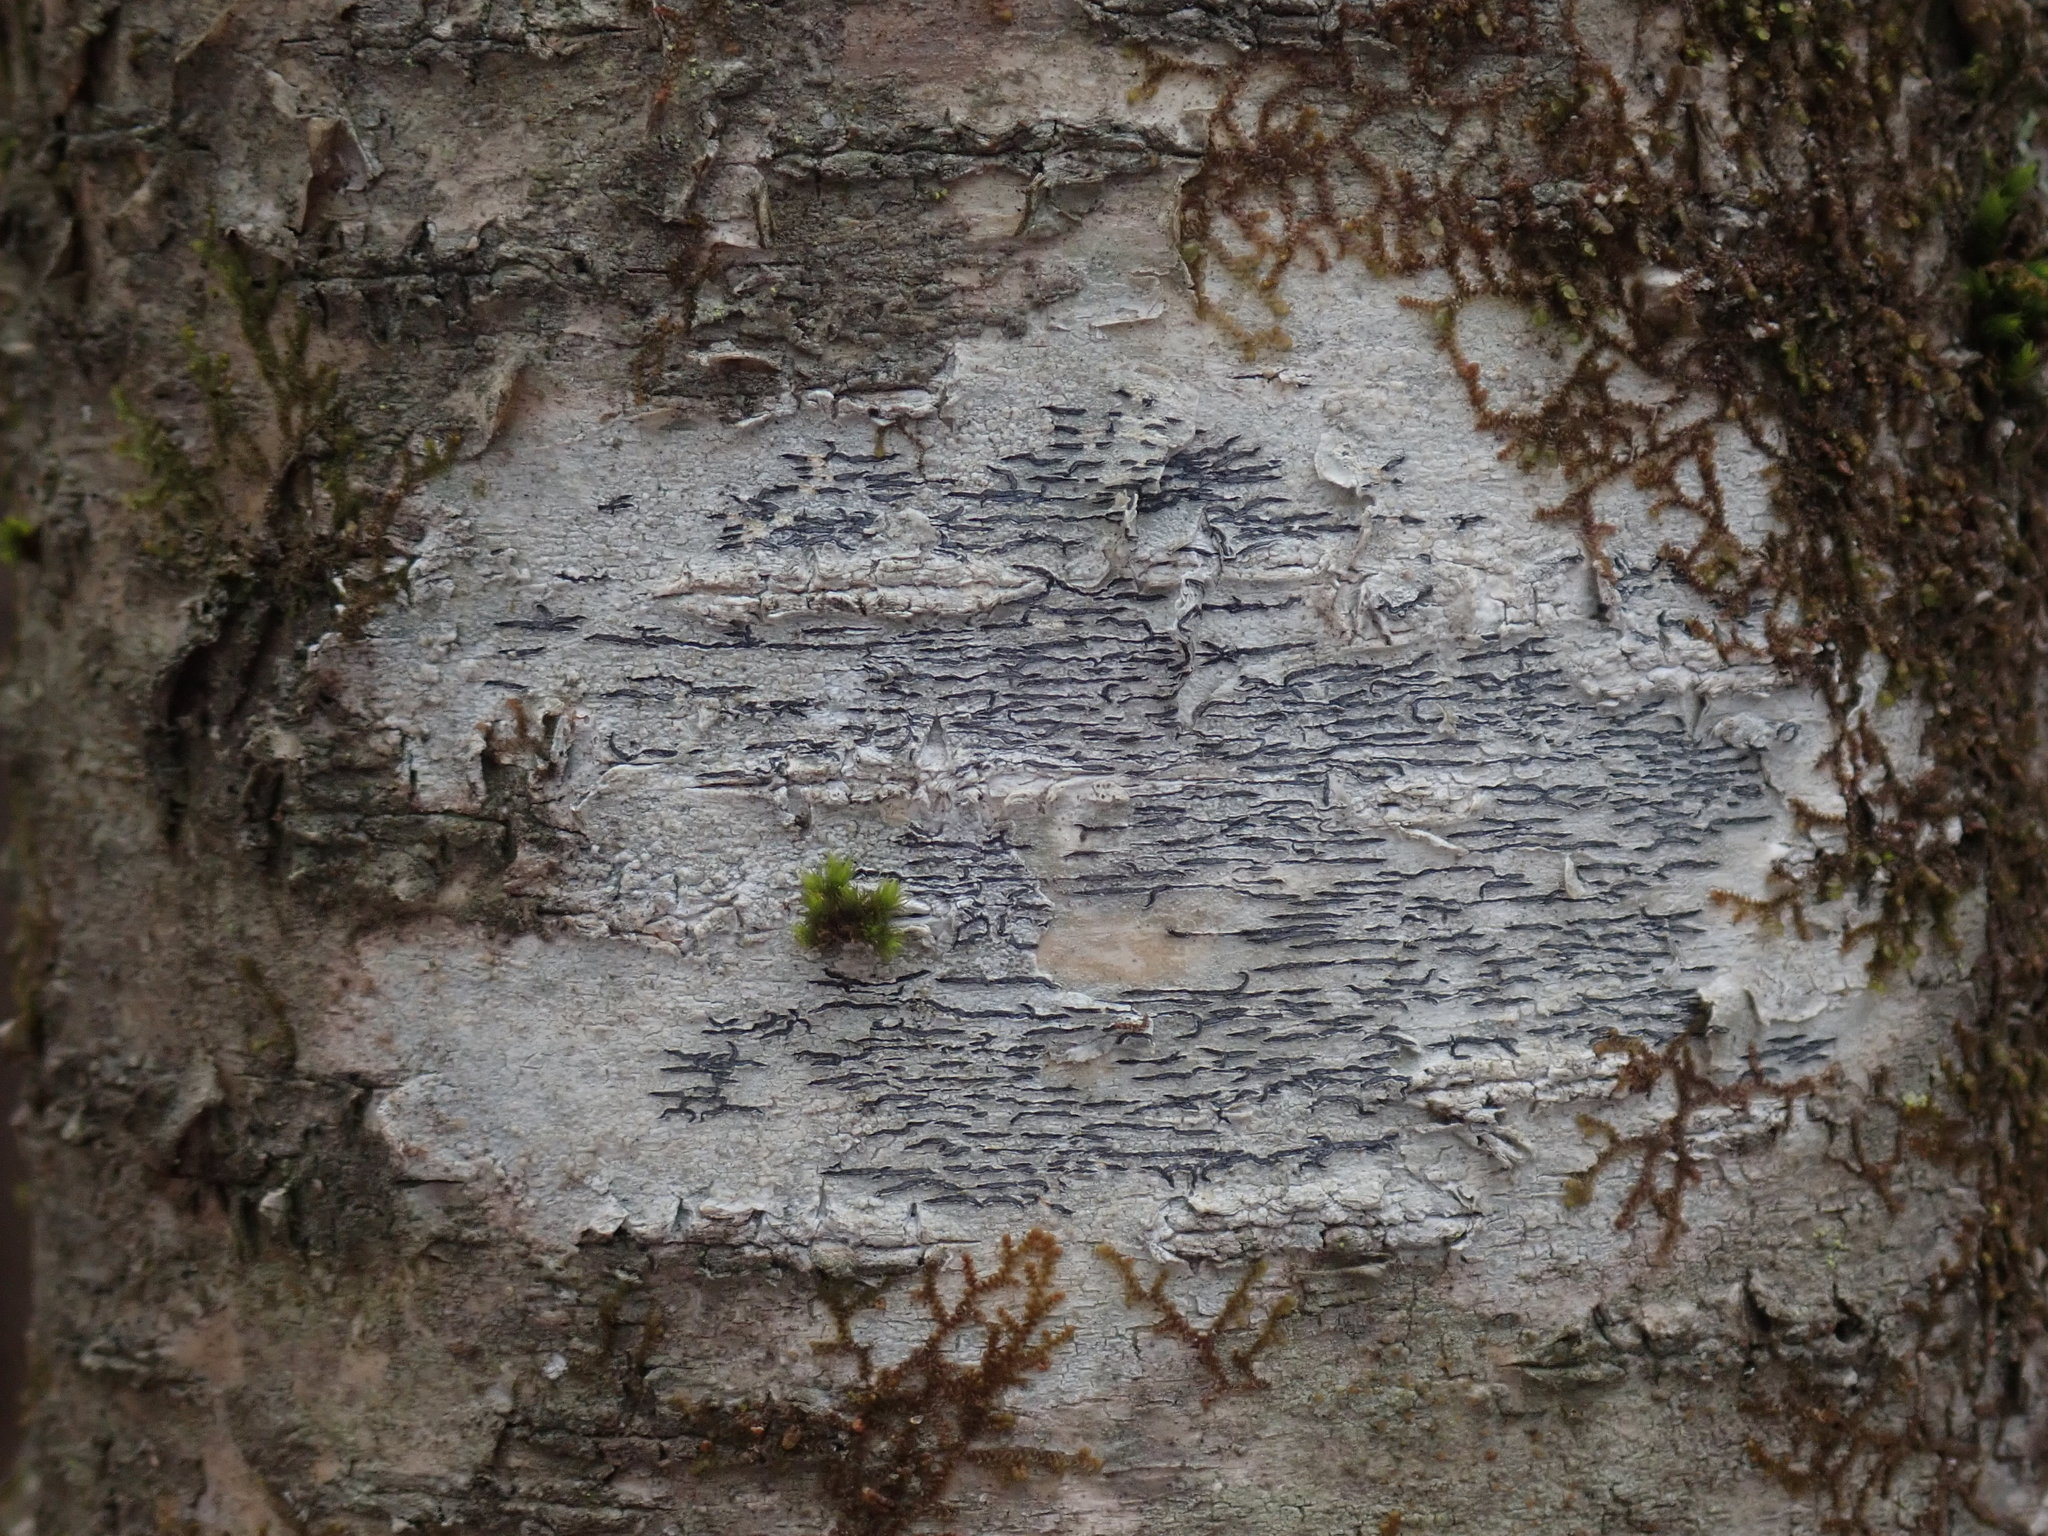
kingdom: Fungi
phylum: Ascomycota
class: Lecanoromycetes
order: Ostropales
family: Graphidaceae
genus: Graphis
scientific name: Graphis scripta
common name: Script lichen
